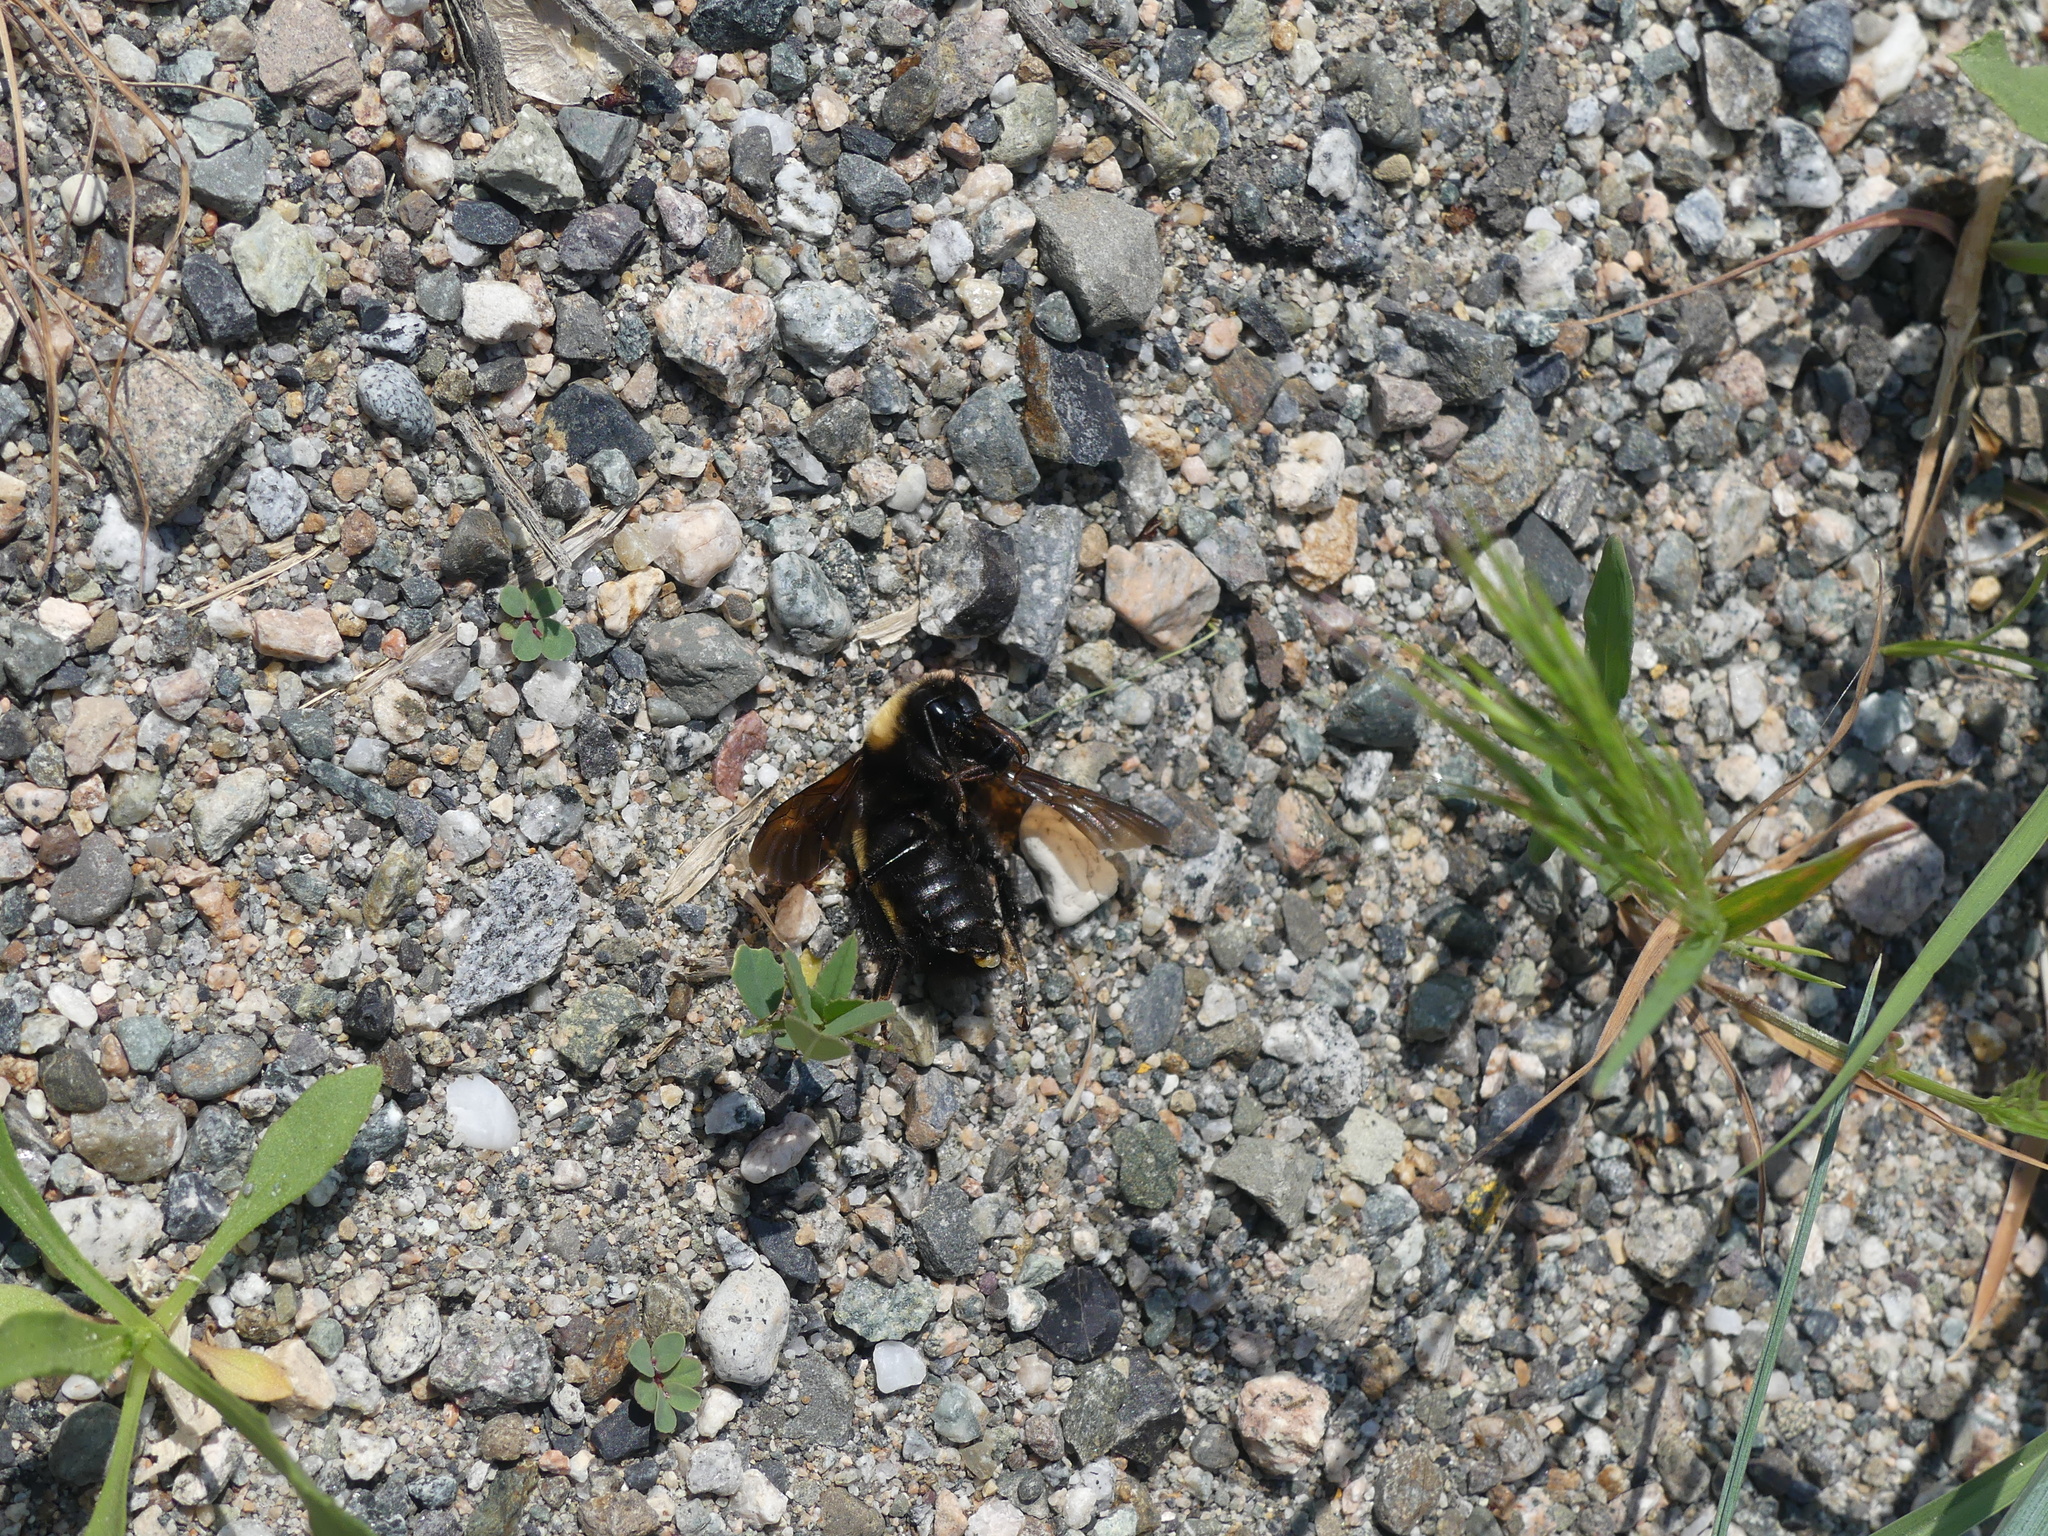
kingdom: Animalia
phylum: Arthropoda
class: Insecta
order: Hymenoptera
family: Apidae
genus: Bombus
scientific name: Bombus nevadensis
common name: Nevada bumble bee
